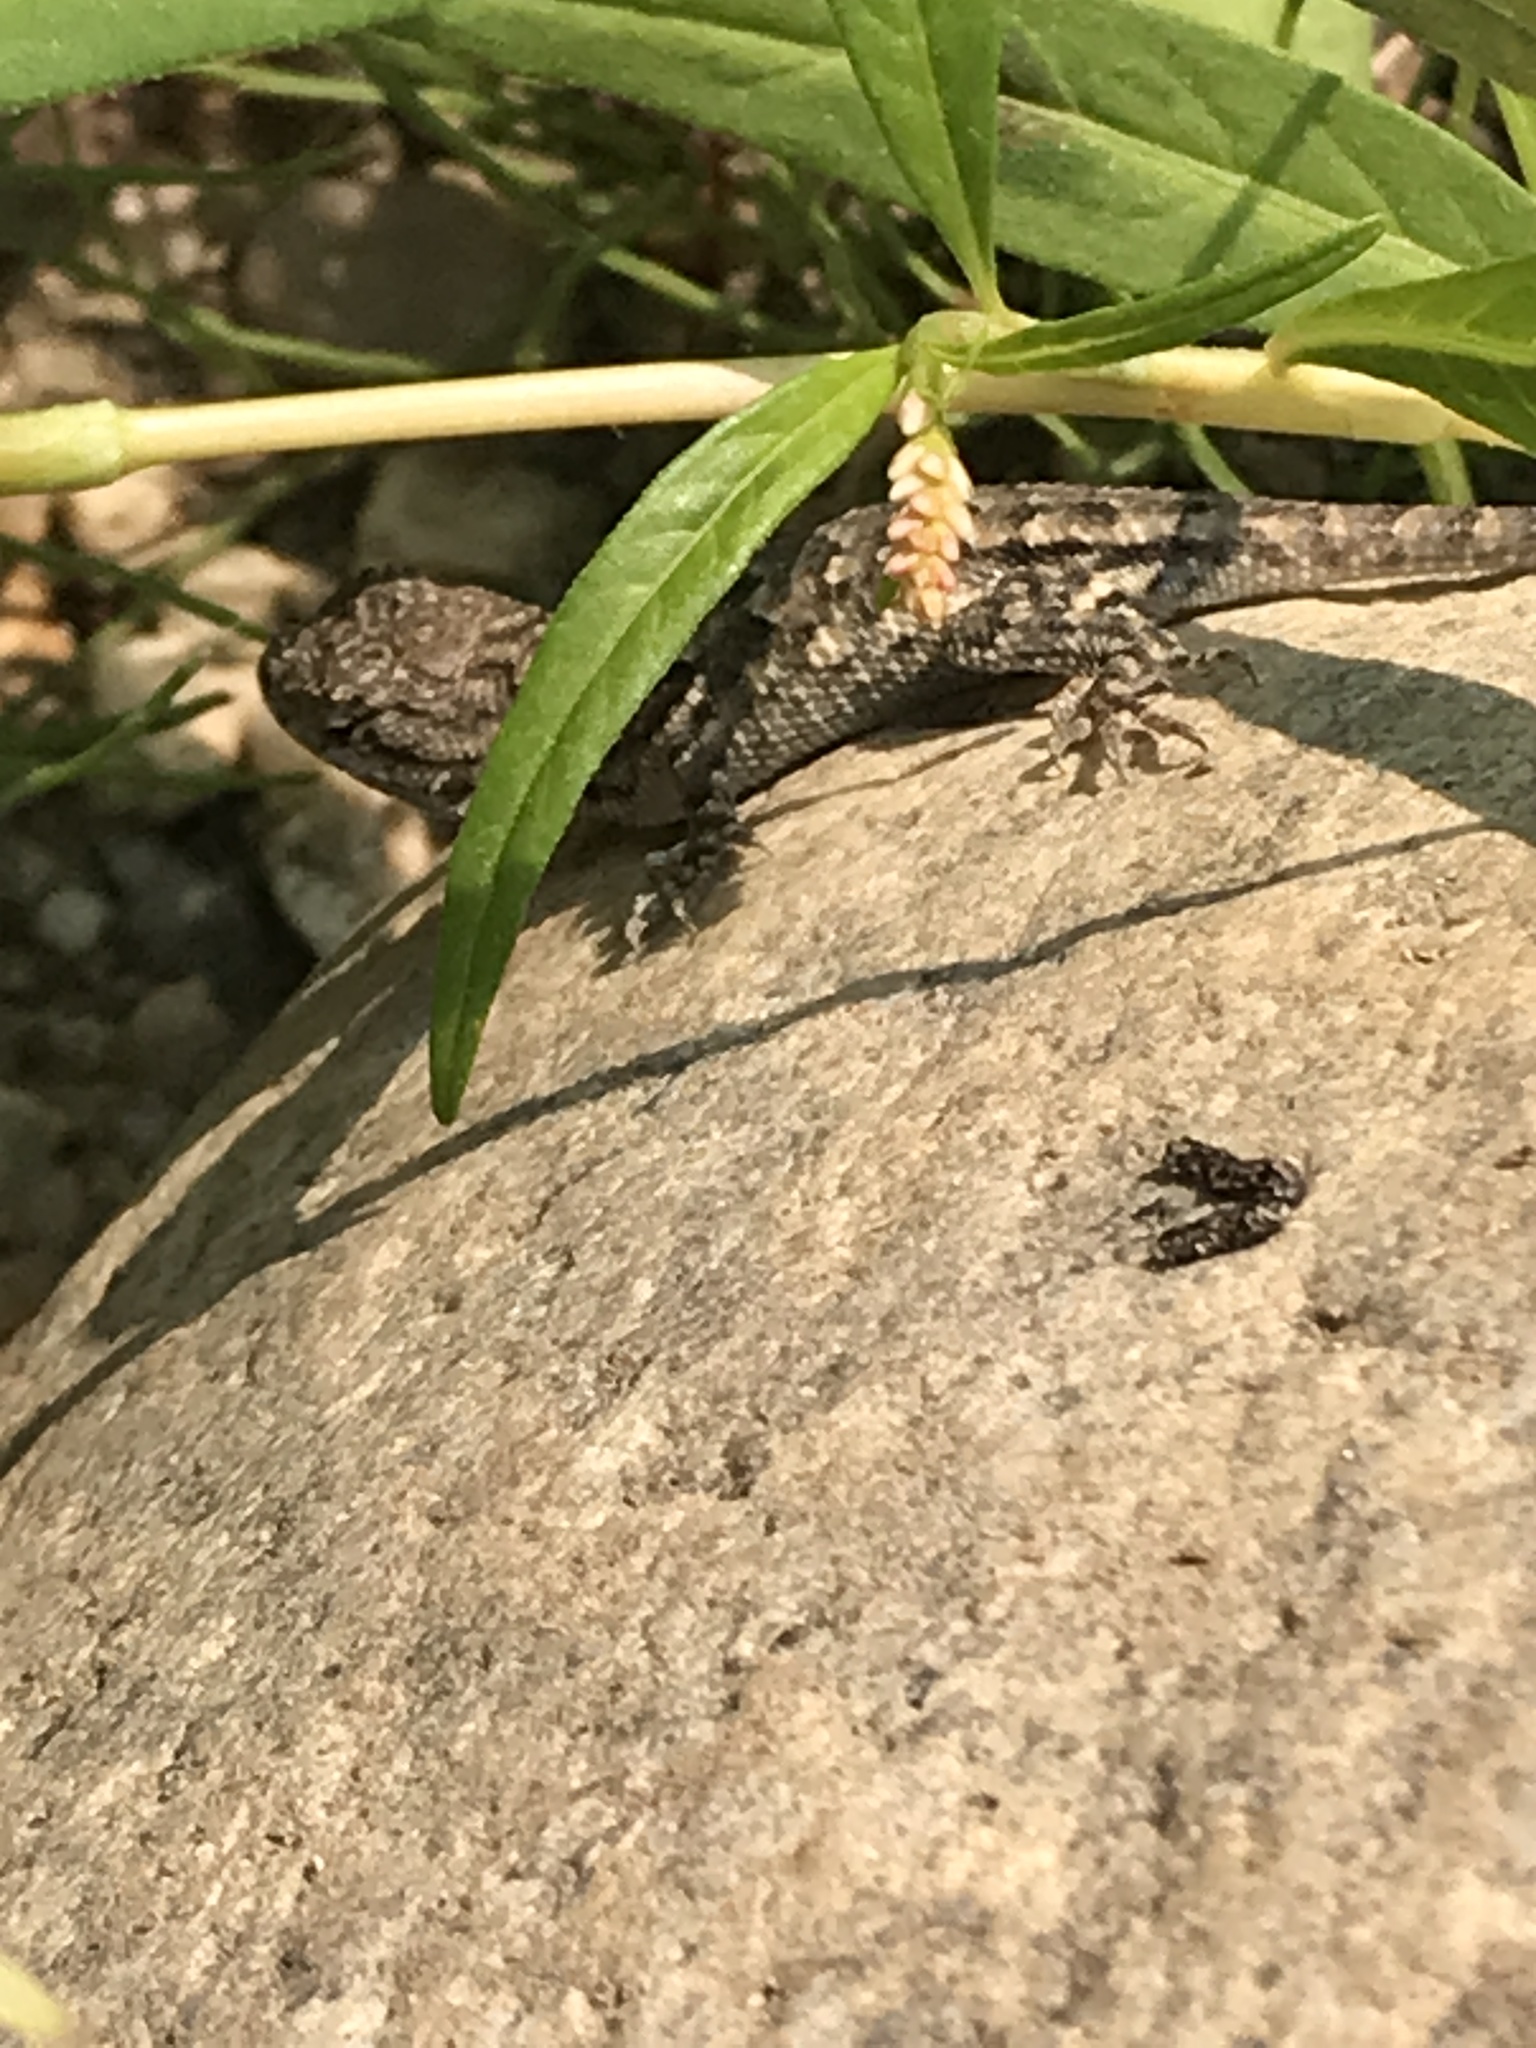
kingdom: Animalia
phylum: Chordata
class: Squamata
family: Phrynosomatidae
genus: Sceloporus
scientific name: Sceloporus occidentalis
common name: Western fence lizard
